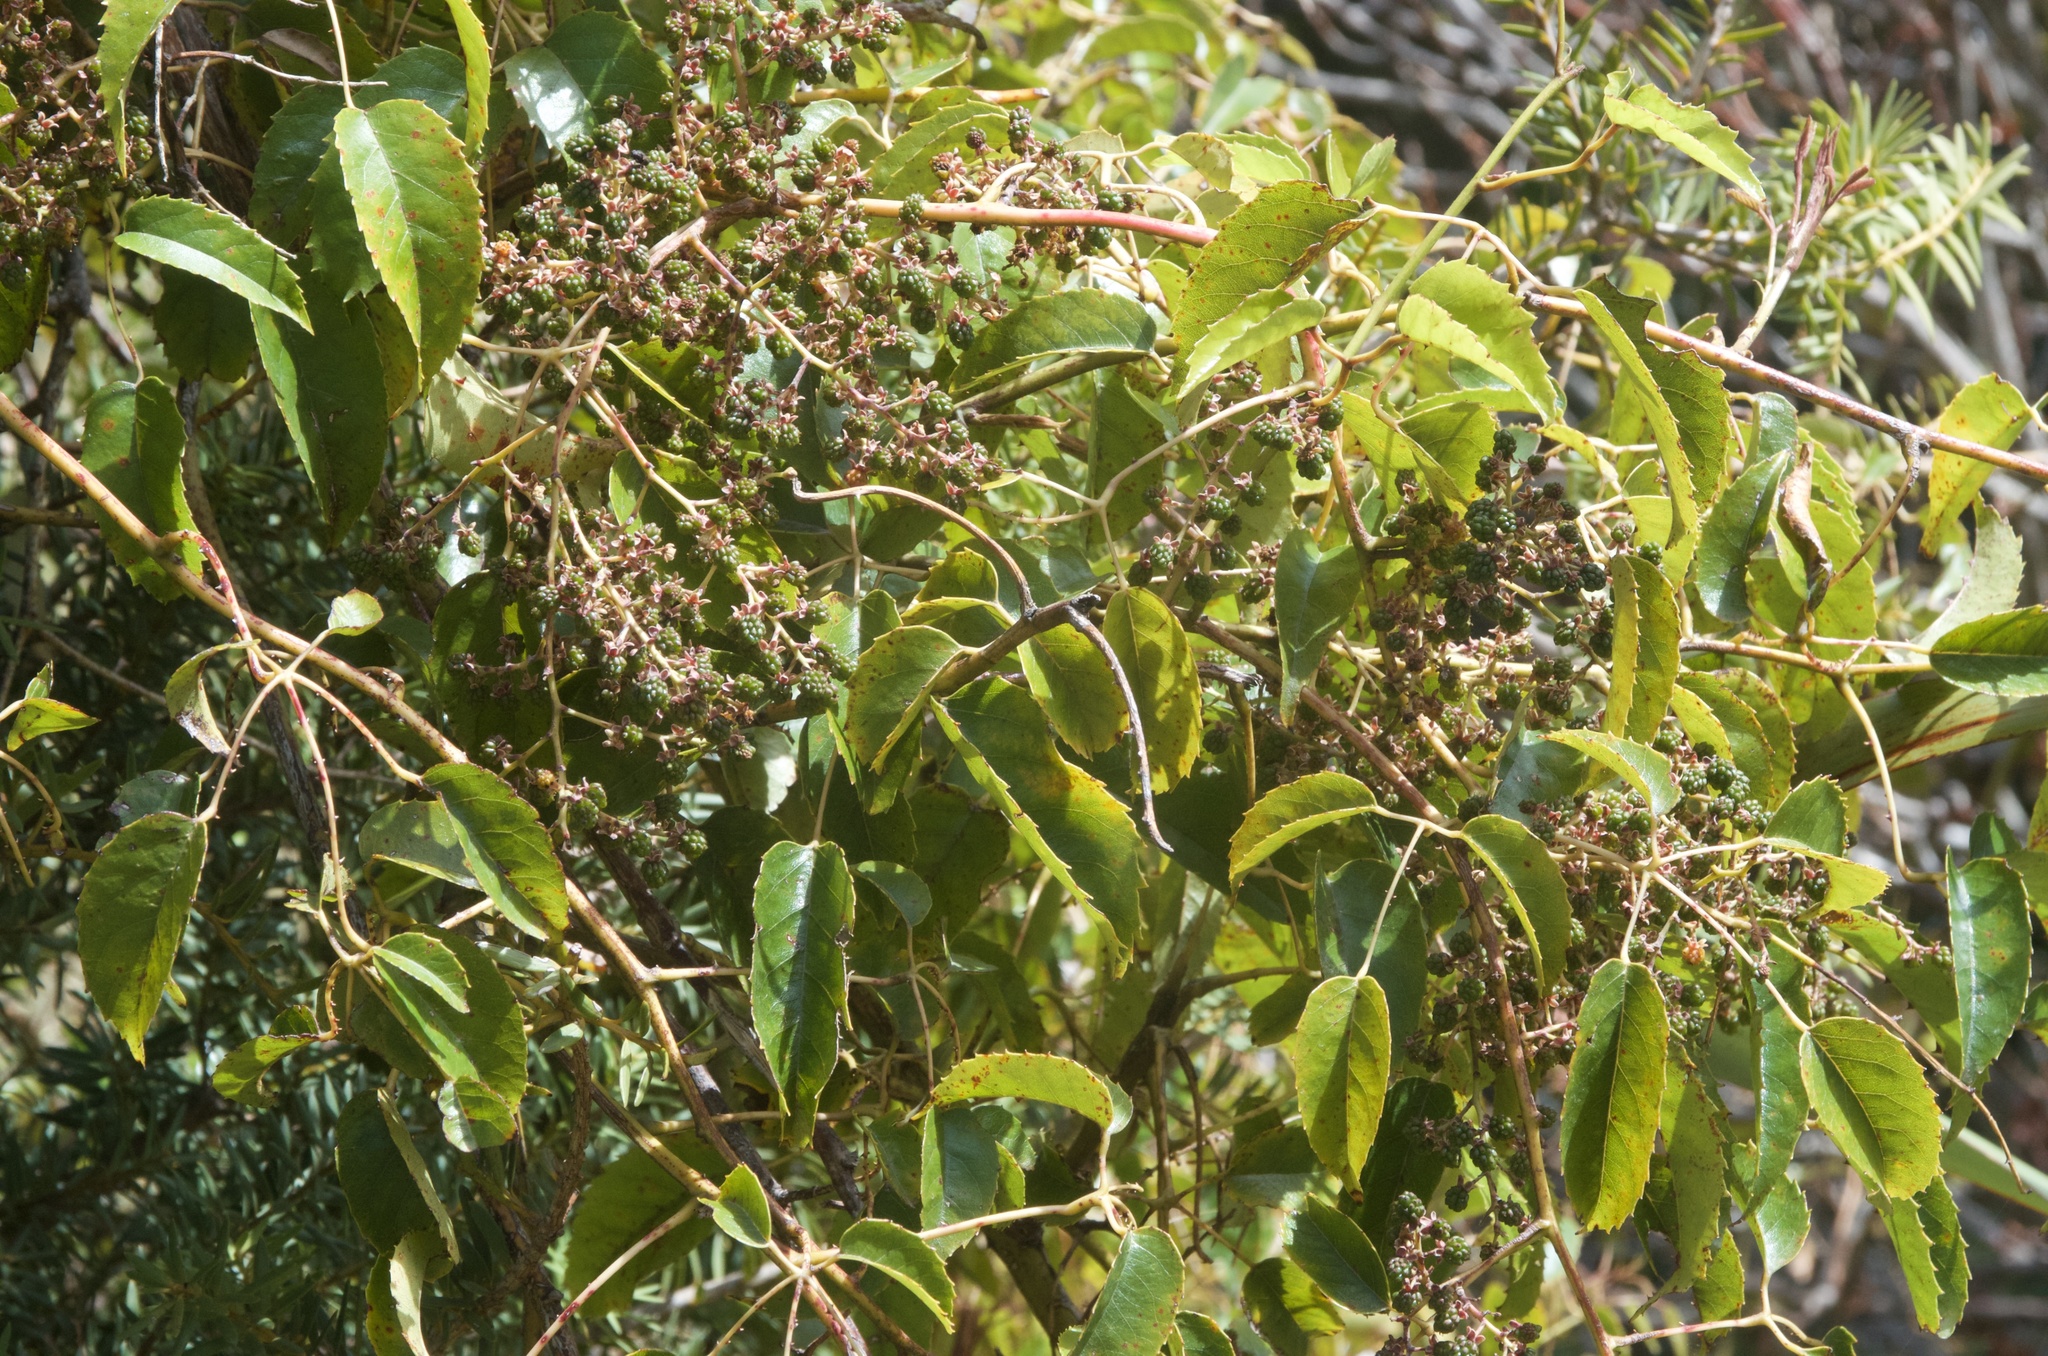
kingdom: Plantae
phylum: Tracheophyta
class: Magnoliopsida
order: Rosales
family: Rosaceae
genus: Rubus
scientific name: Rubus cissoides
